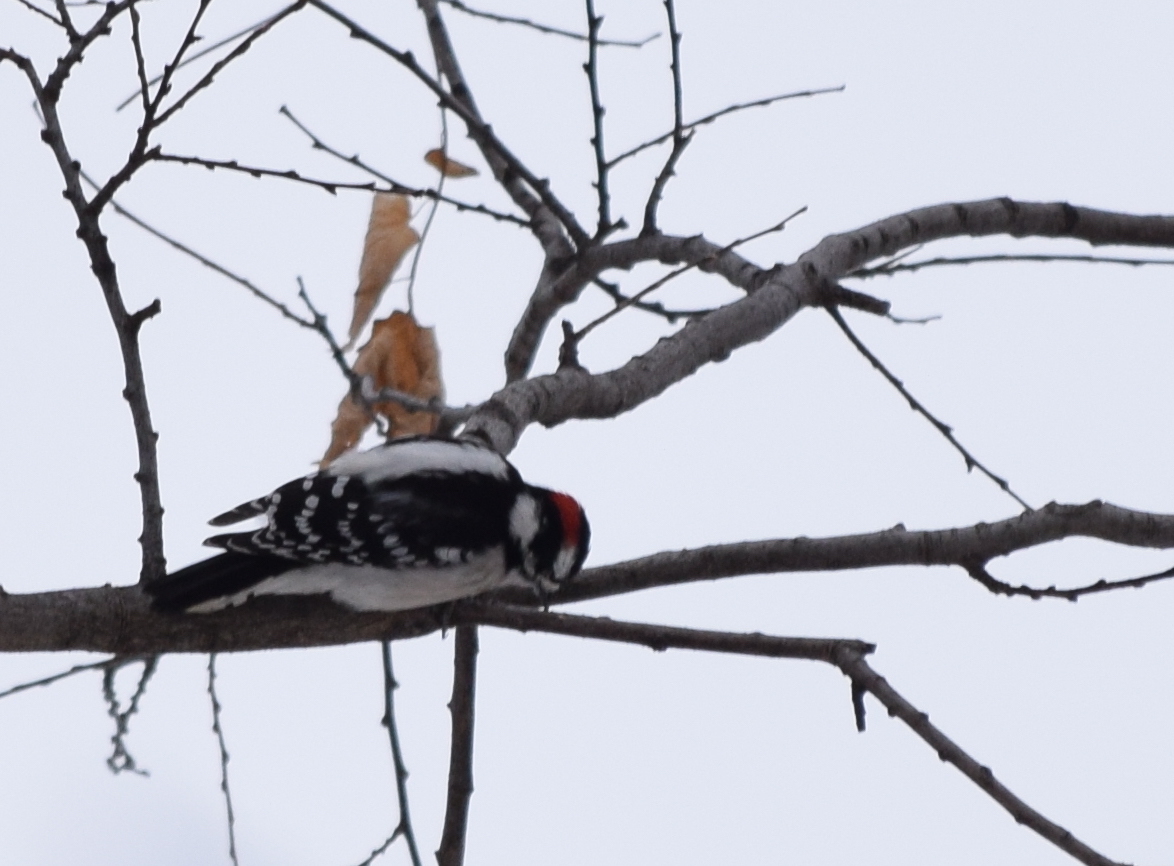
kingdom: Animalia
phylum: Chordata
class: Aves
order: Piciformes
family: Picidae
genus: Dryobates
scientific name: Dryobates pubescens
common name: Downy woodpecker
